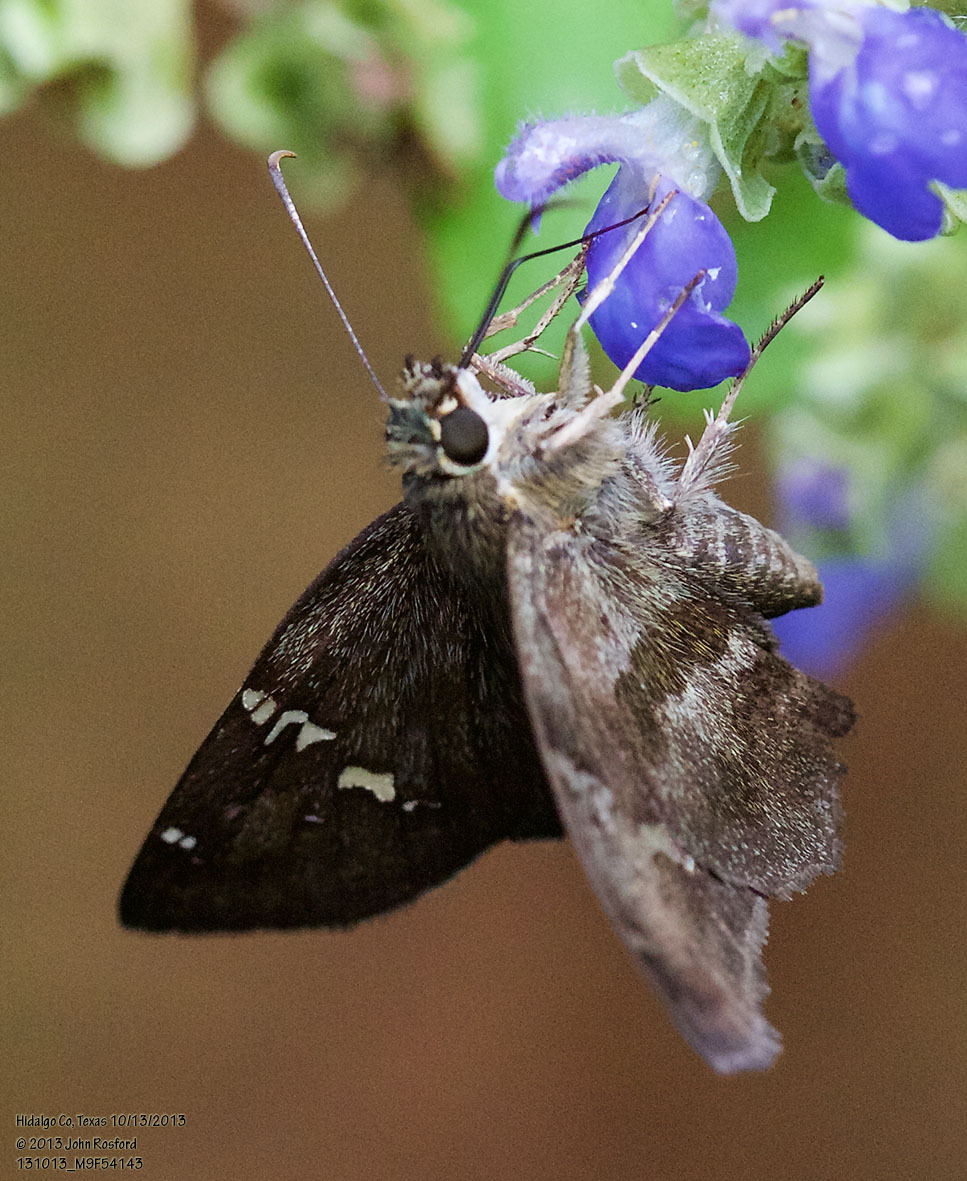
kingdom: Animalia
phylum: Arthropoda
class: Insecta
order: Lepidoptera
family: Hesperiidae
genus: Autochton
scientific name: Autochton potrillo
